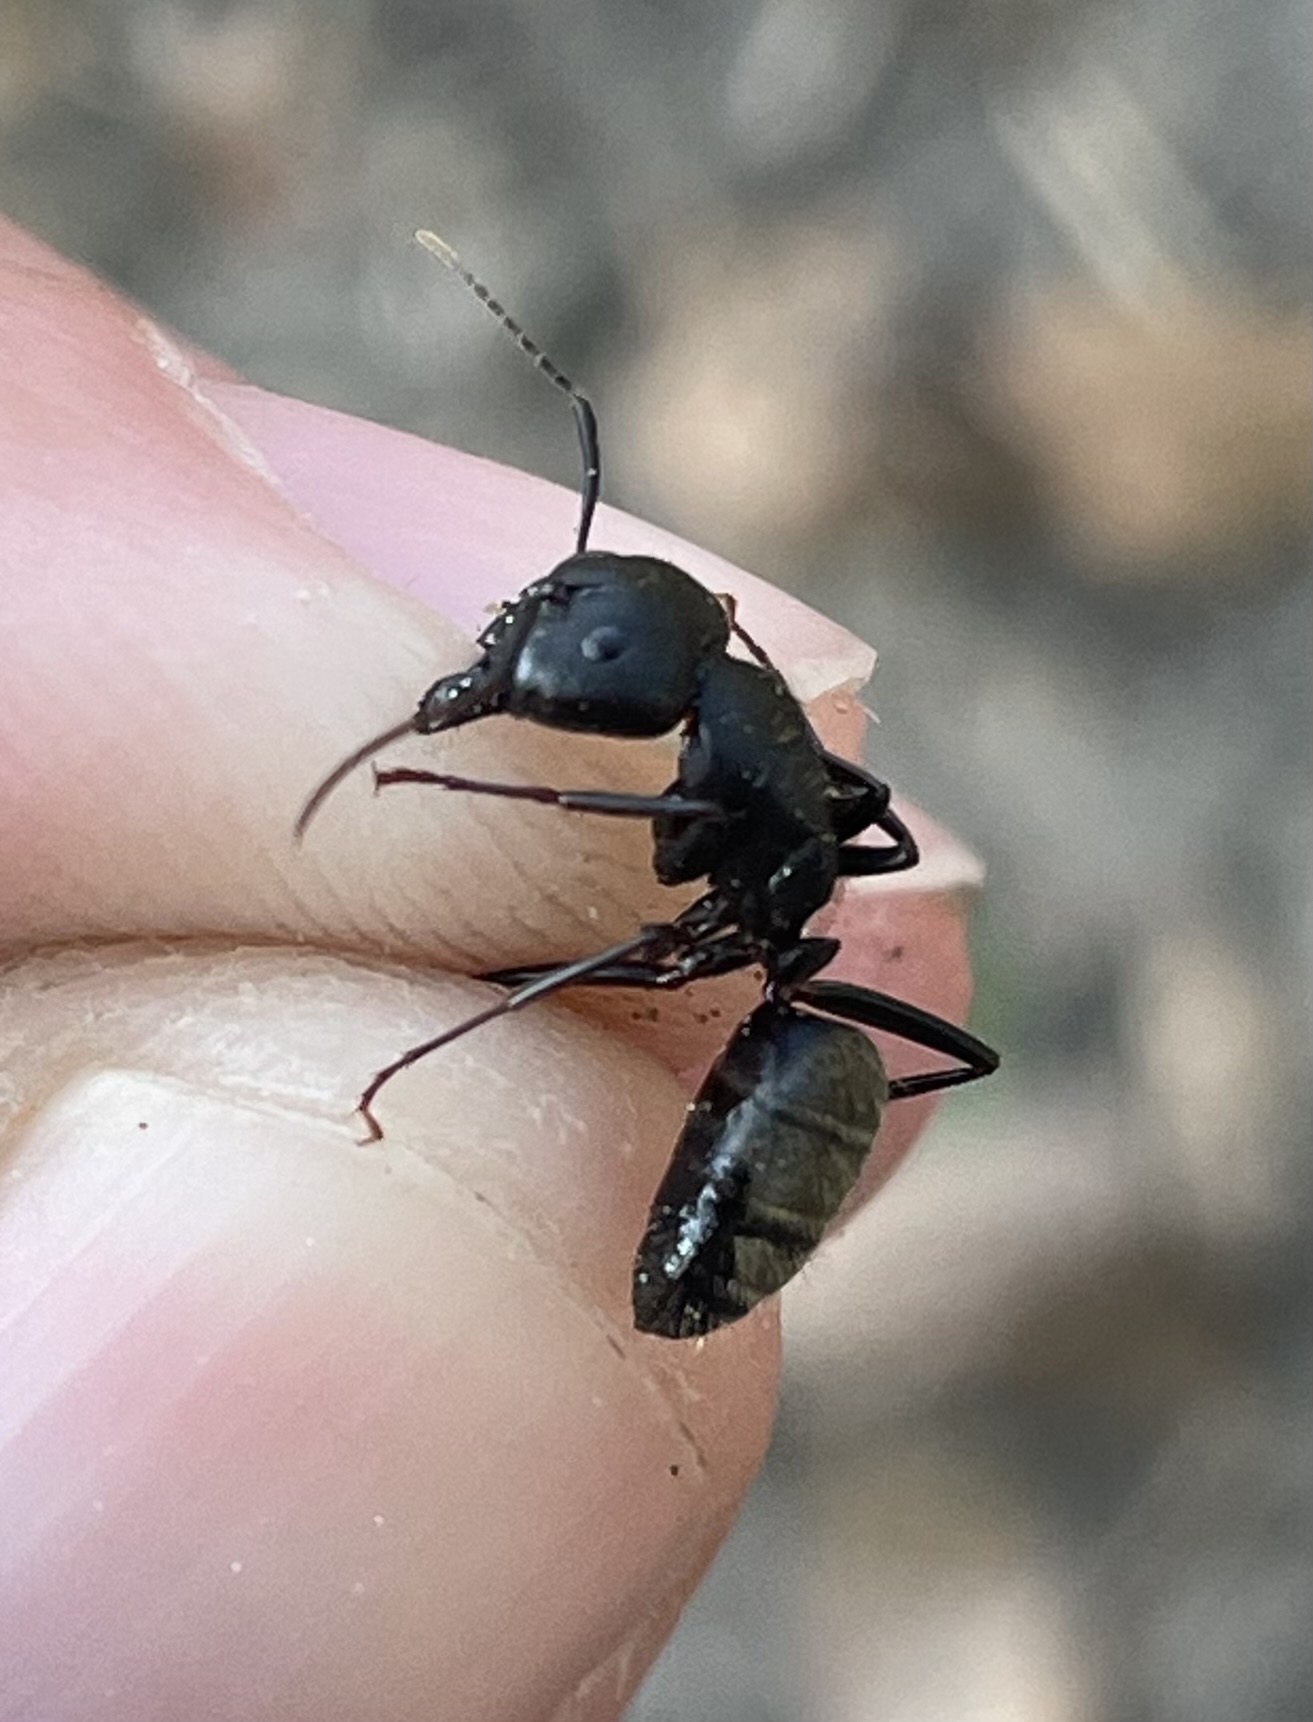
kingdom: Animalia
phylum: Arthropoda
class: Insecta
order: Hymenoptera
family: Formicidae
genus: Camponotus
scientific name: Camponotus pennsylvanicus
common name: Black carpenter ant
